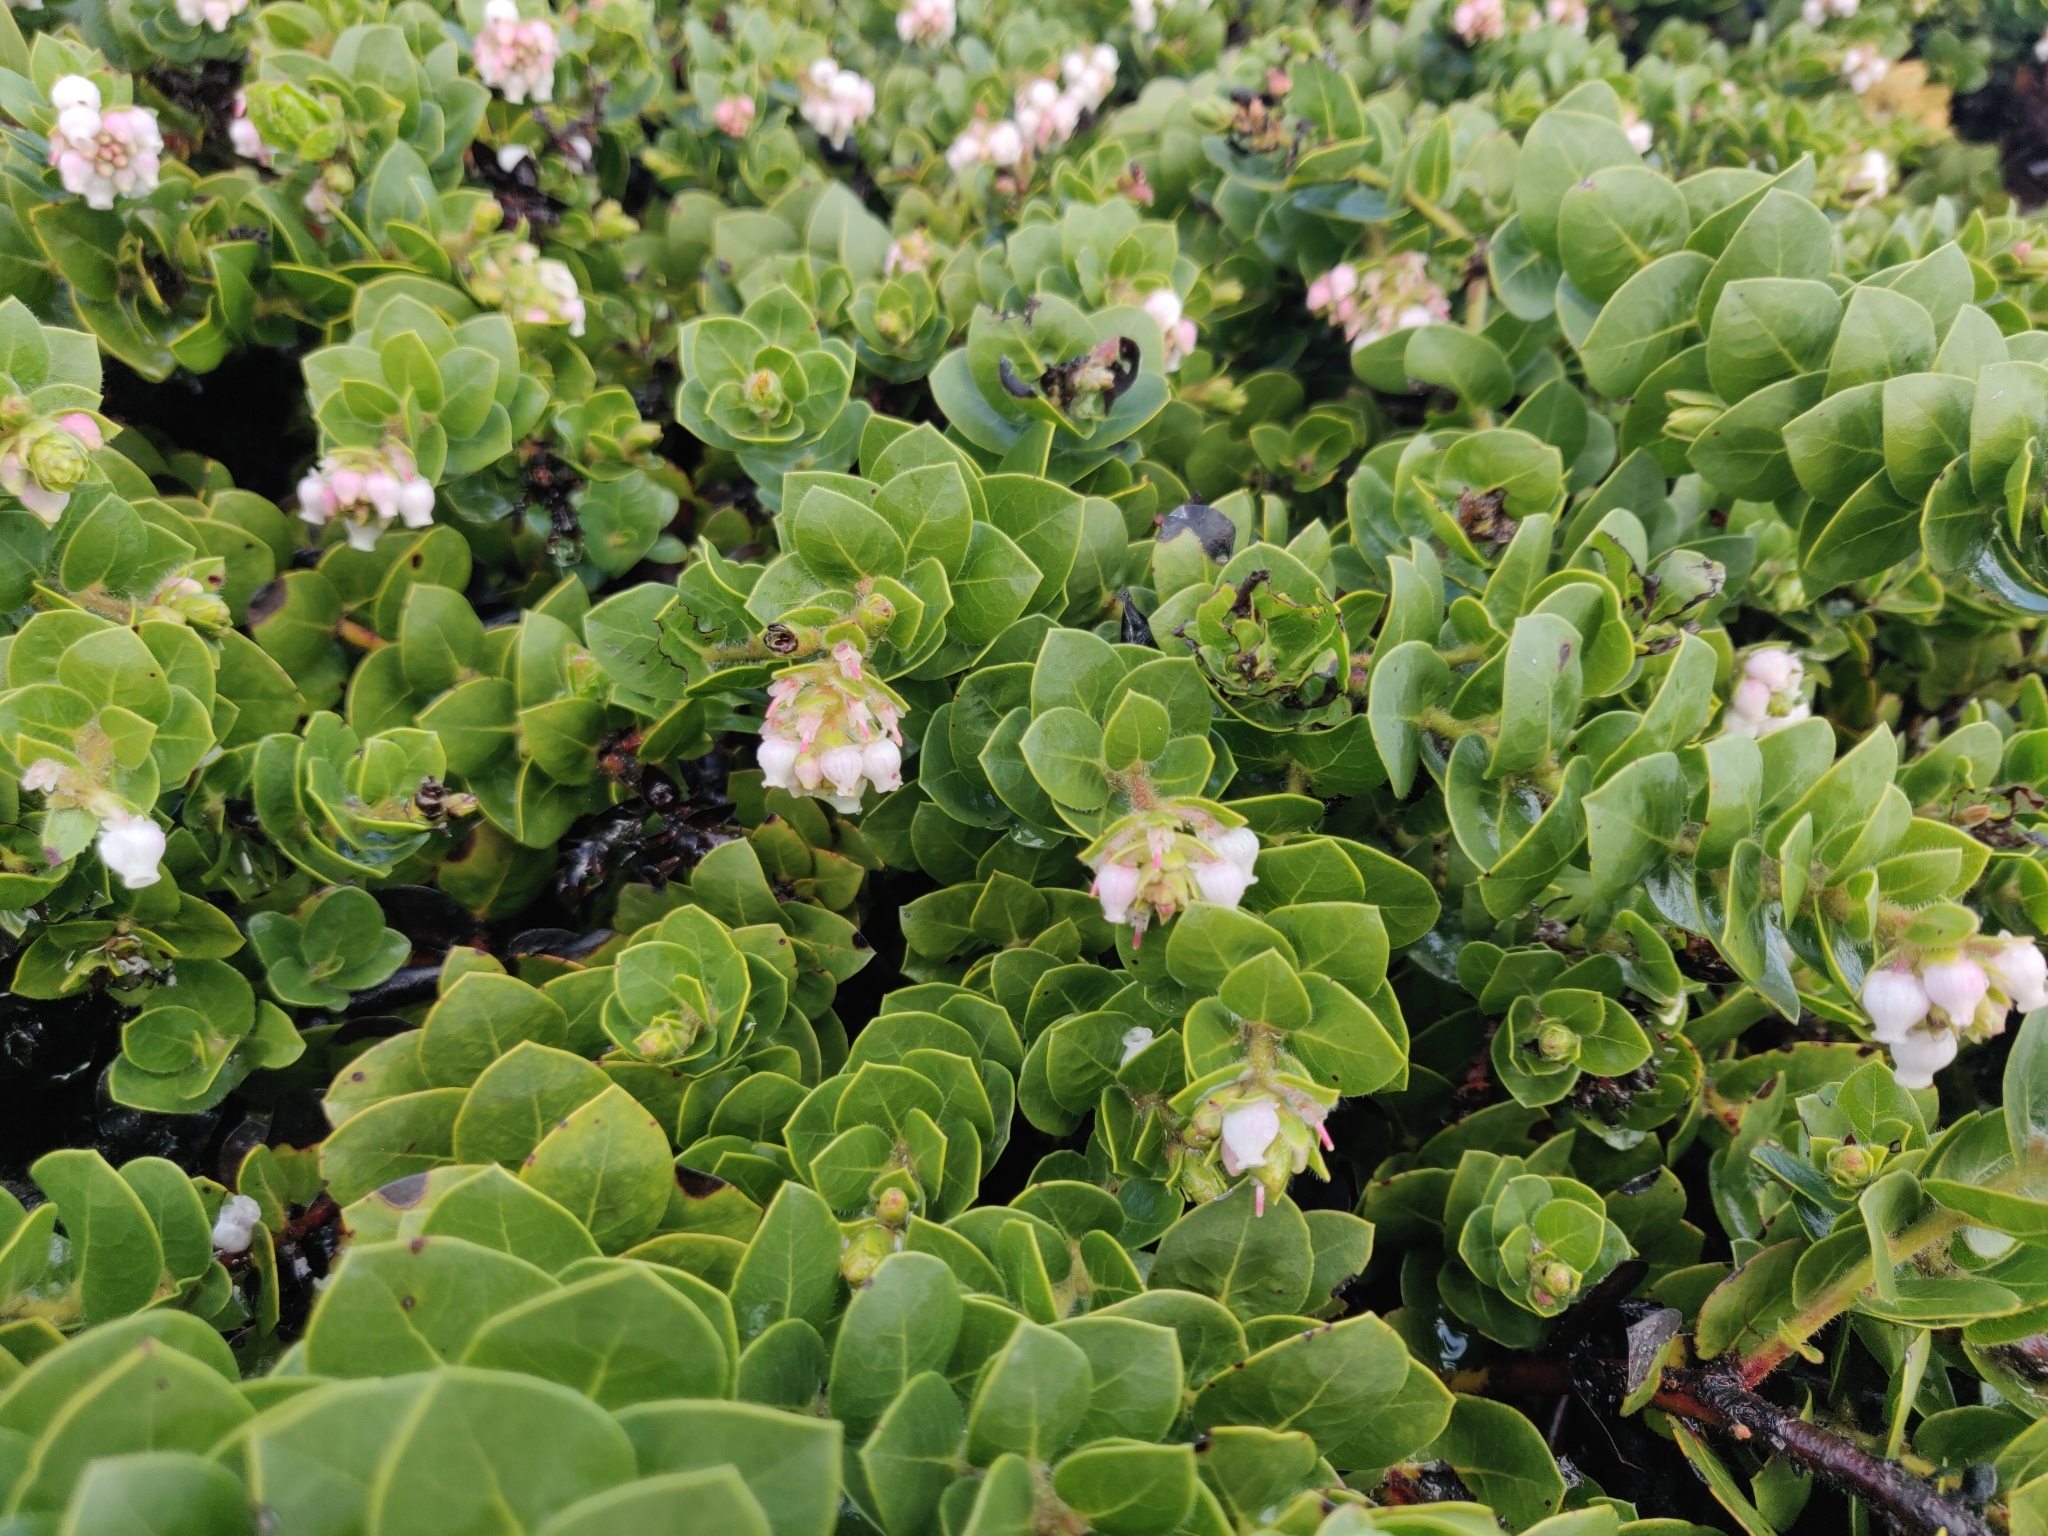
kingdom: Plantae
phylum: Tracheophyta
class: Magnoliopsida
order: Ericales
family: Ericaceae
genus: Arctostaphylos
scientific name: Arctostaphylos imbricata
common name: San bruno mountain manzanita
